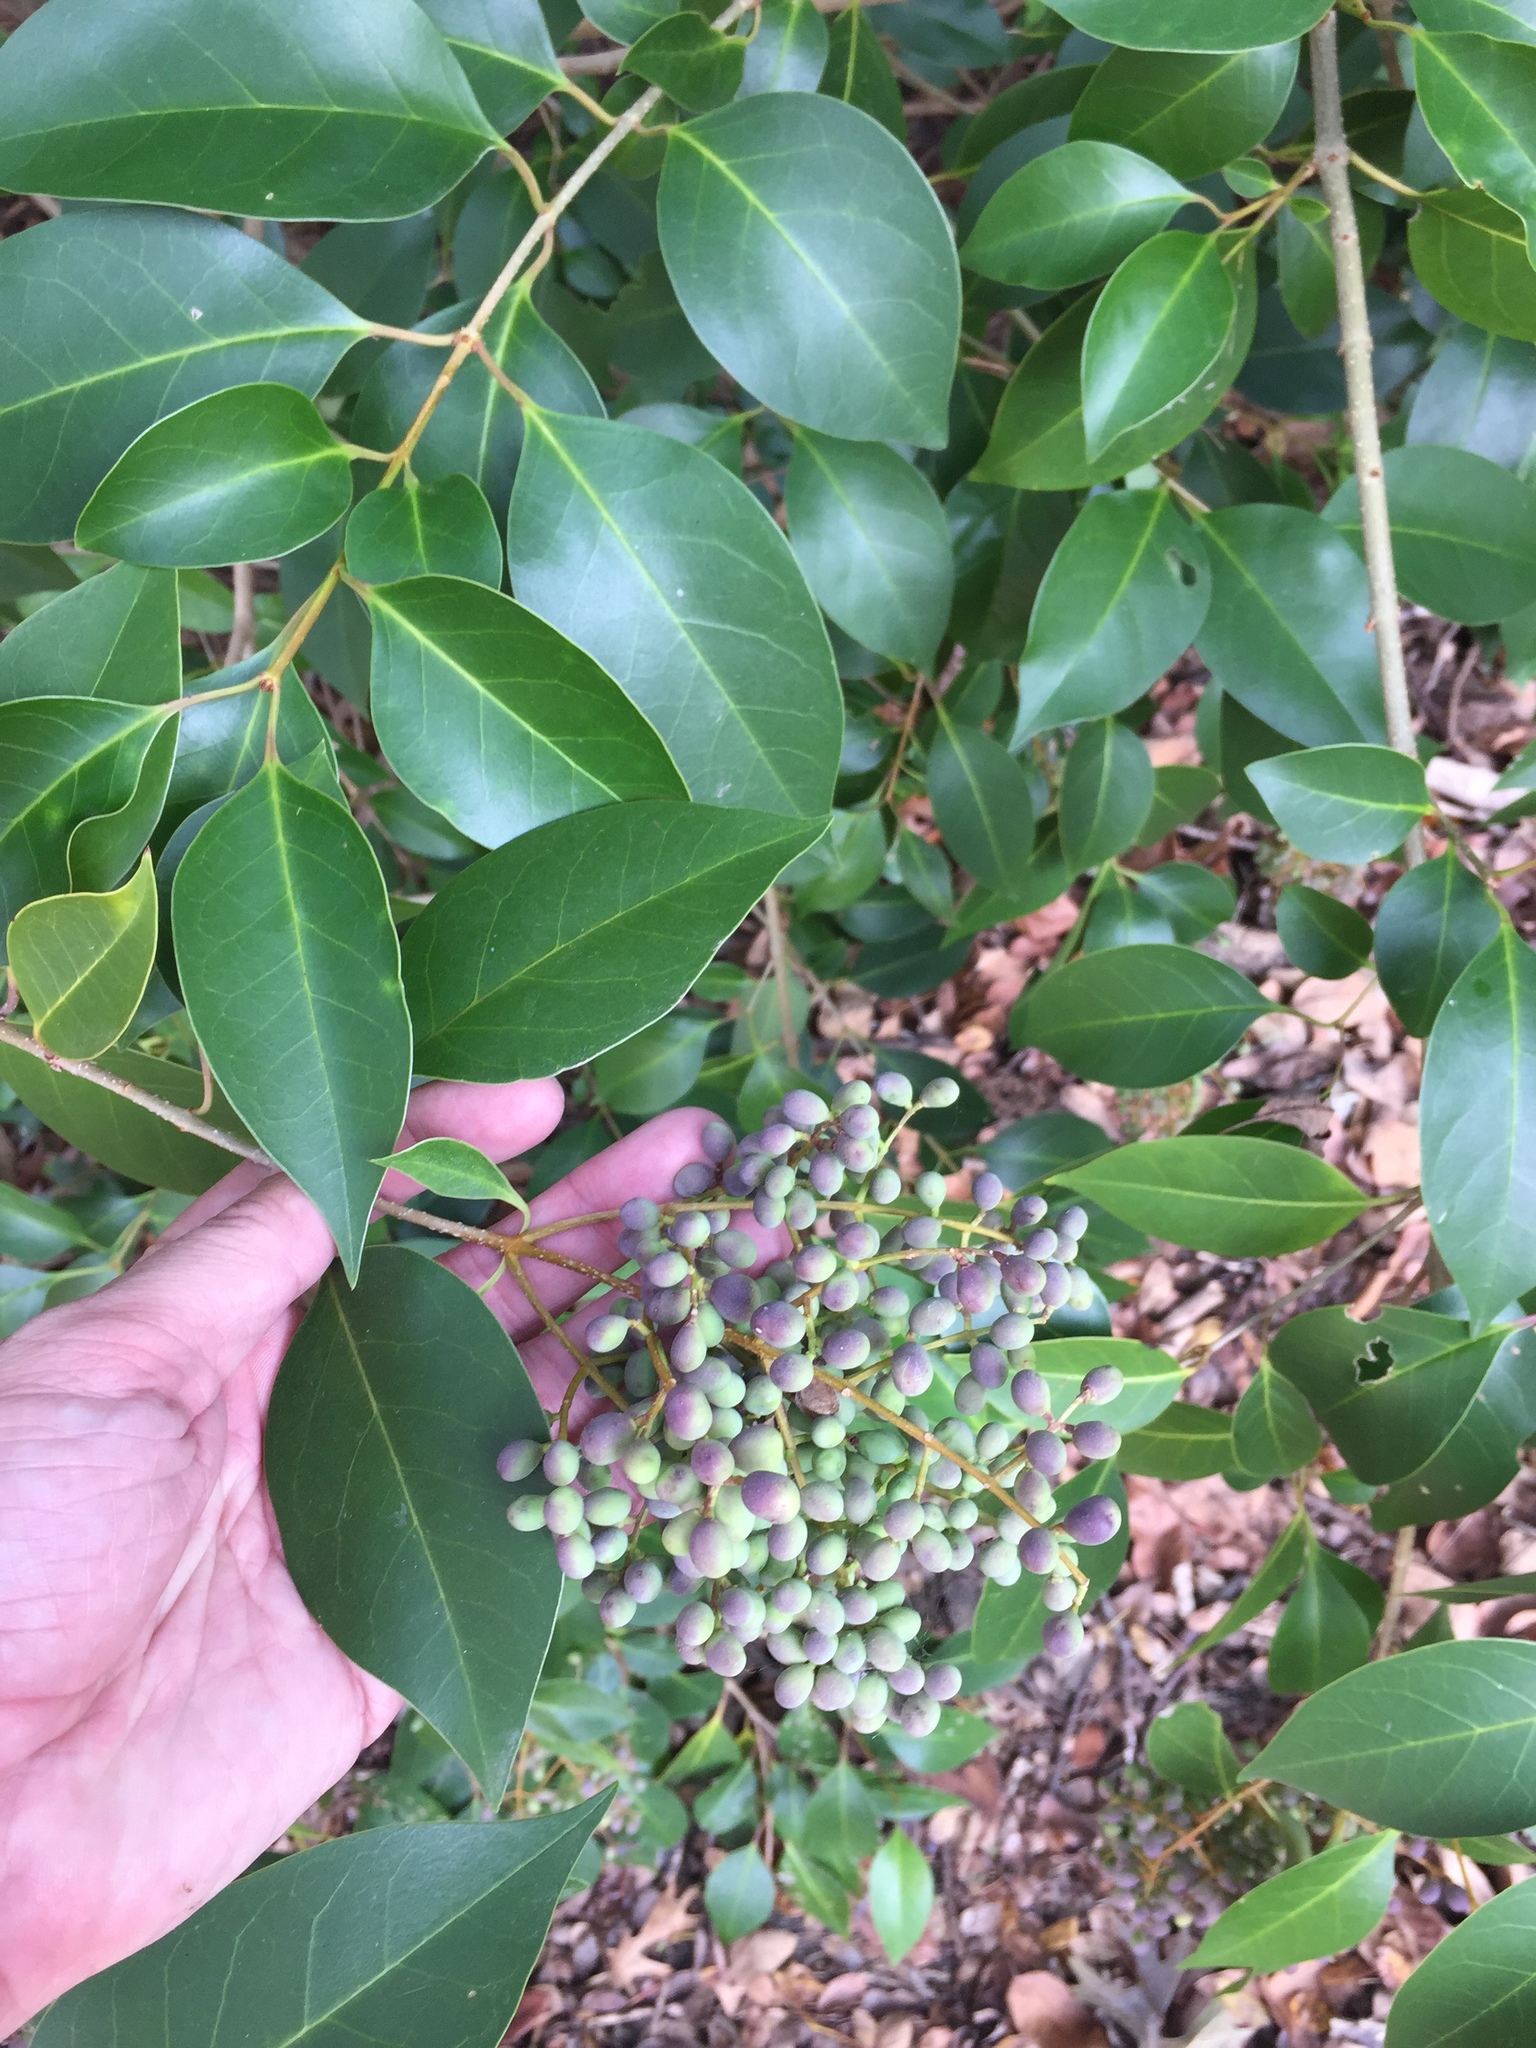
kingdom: Plantae
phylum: Tracheophyta
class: Magnoliopsida
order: Lamiales
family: Oleaceae
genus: Ligustrum
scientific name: Ligustrum lucidum
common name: Glossy privet
